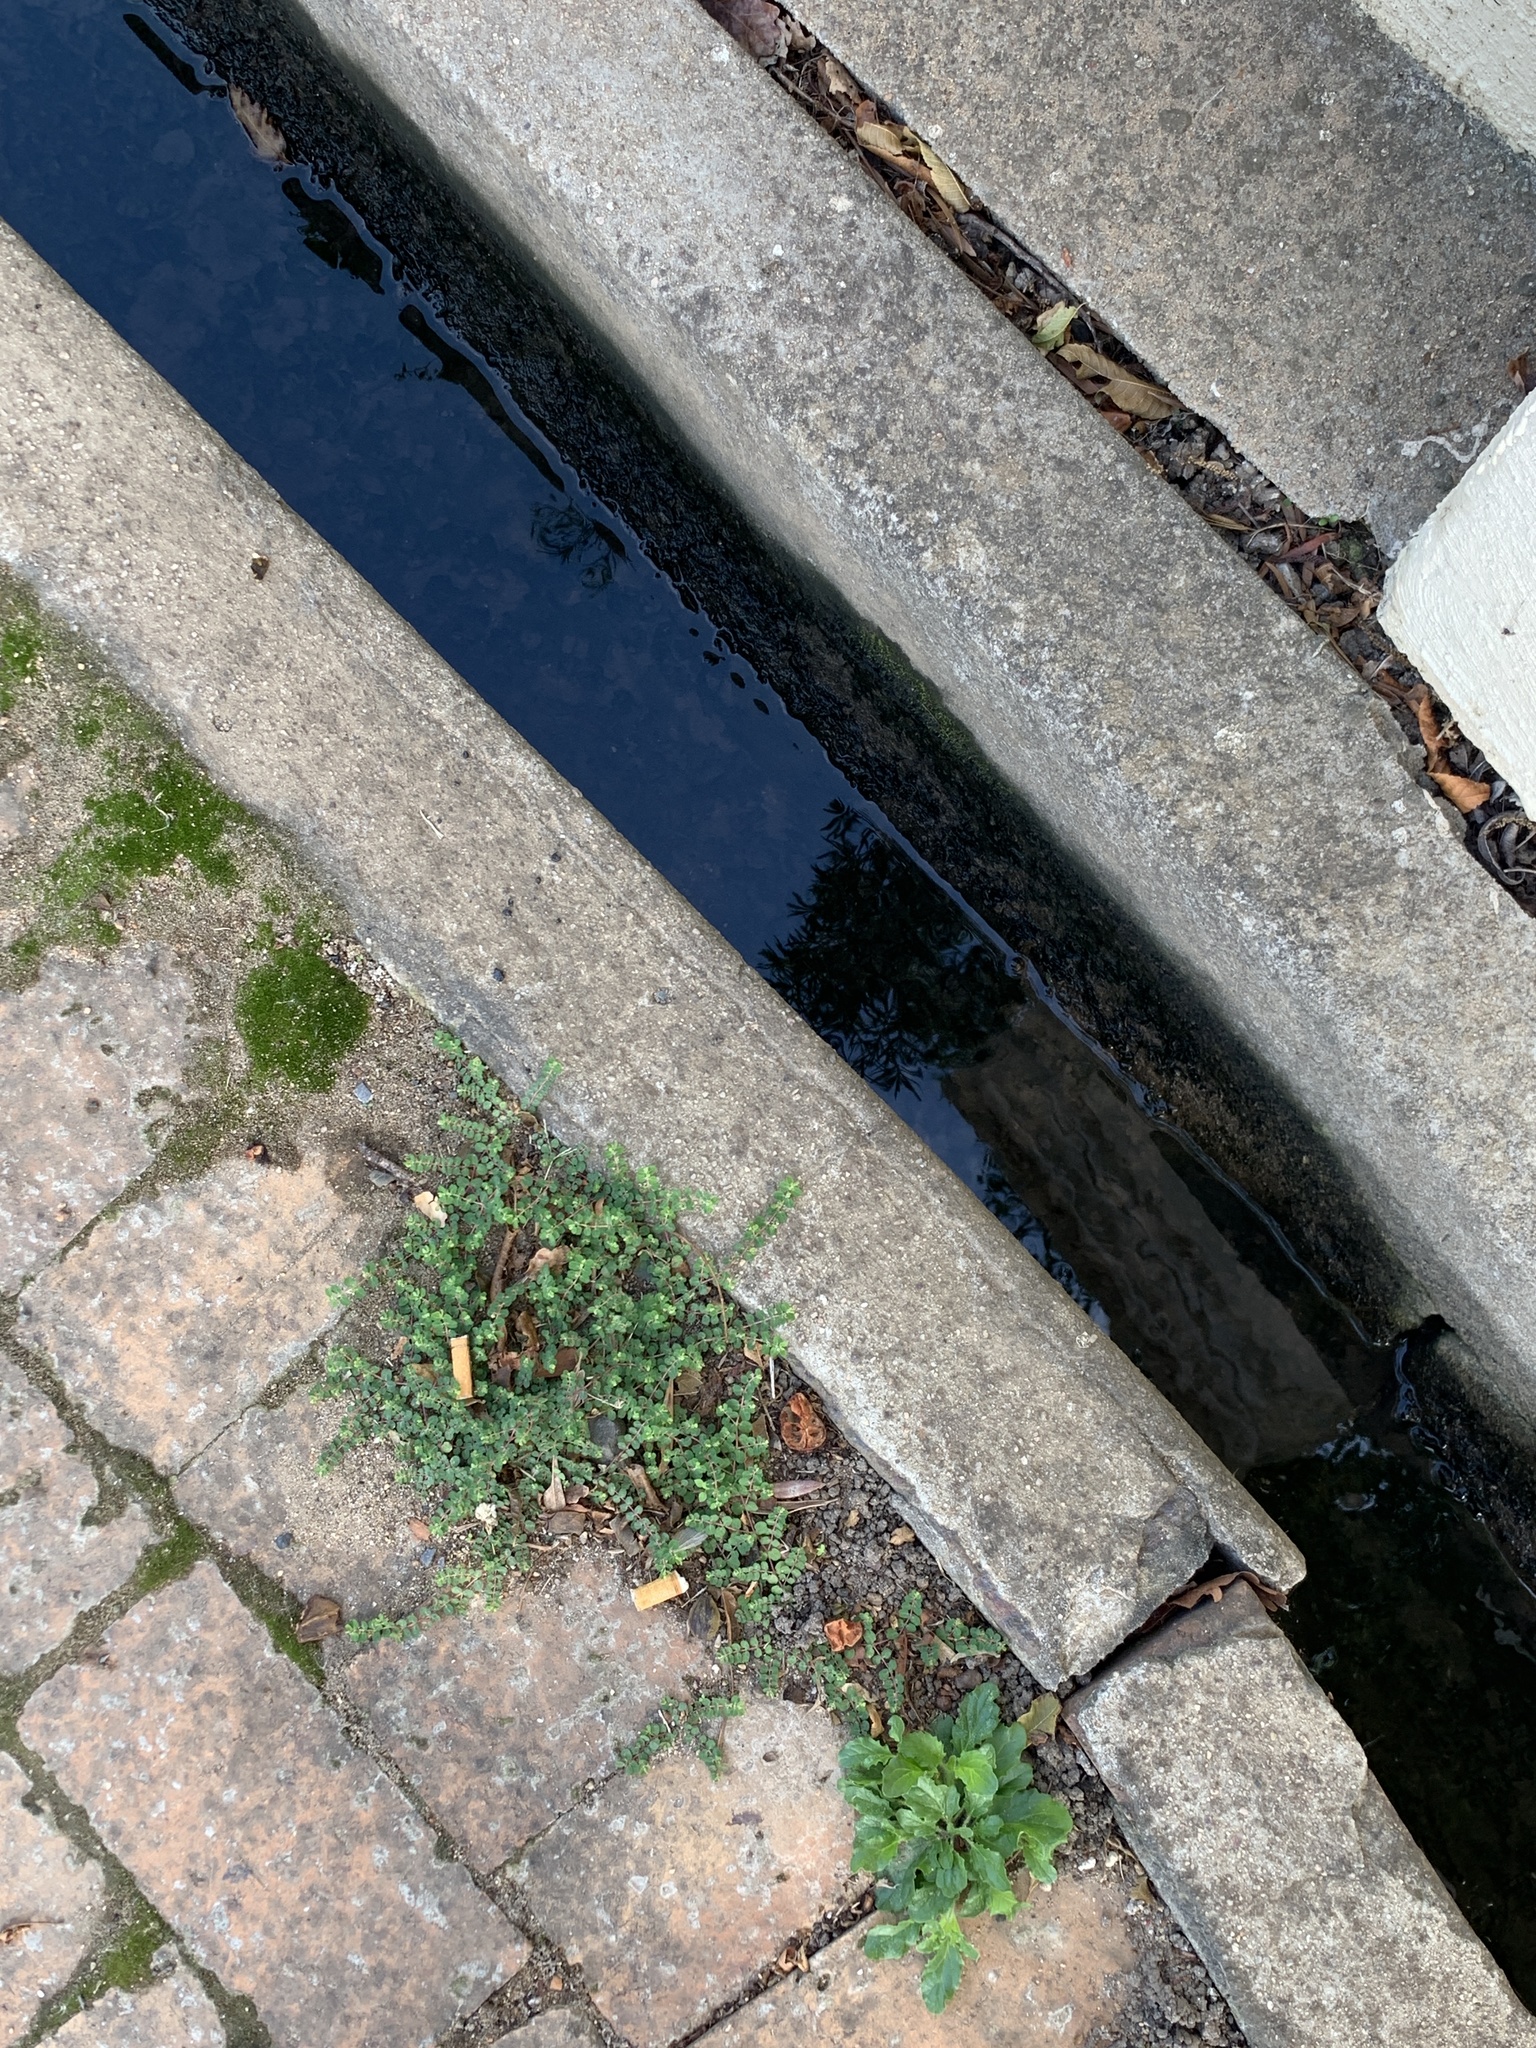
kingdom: Plantae
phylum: Tracheophyta
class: Magnoliopsida
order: Malpighiales
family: Euphorbiaceae
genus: Euphorbia
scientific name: Euphorbia serpens
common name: Matted sandmat
